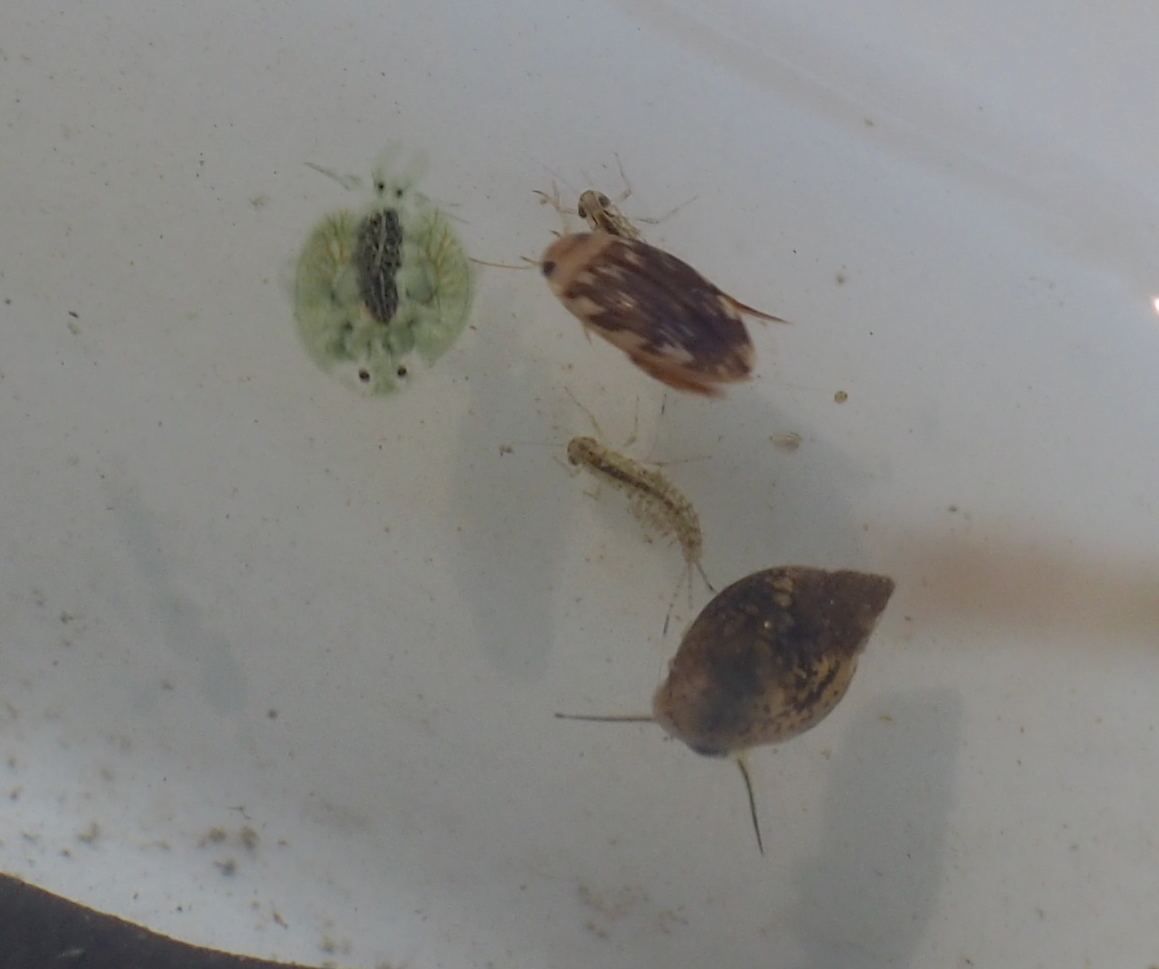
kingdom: Animalia
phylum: Arthropoda
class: Insecta
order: Coleoptera
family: Dytiscidae
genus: Laccophilus
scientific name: Laccophilus
